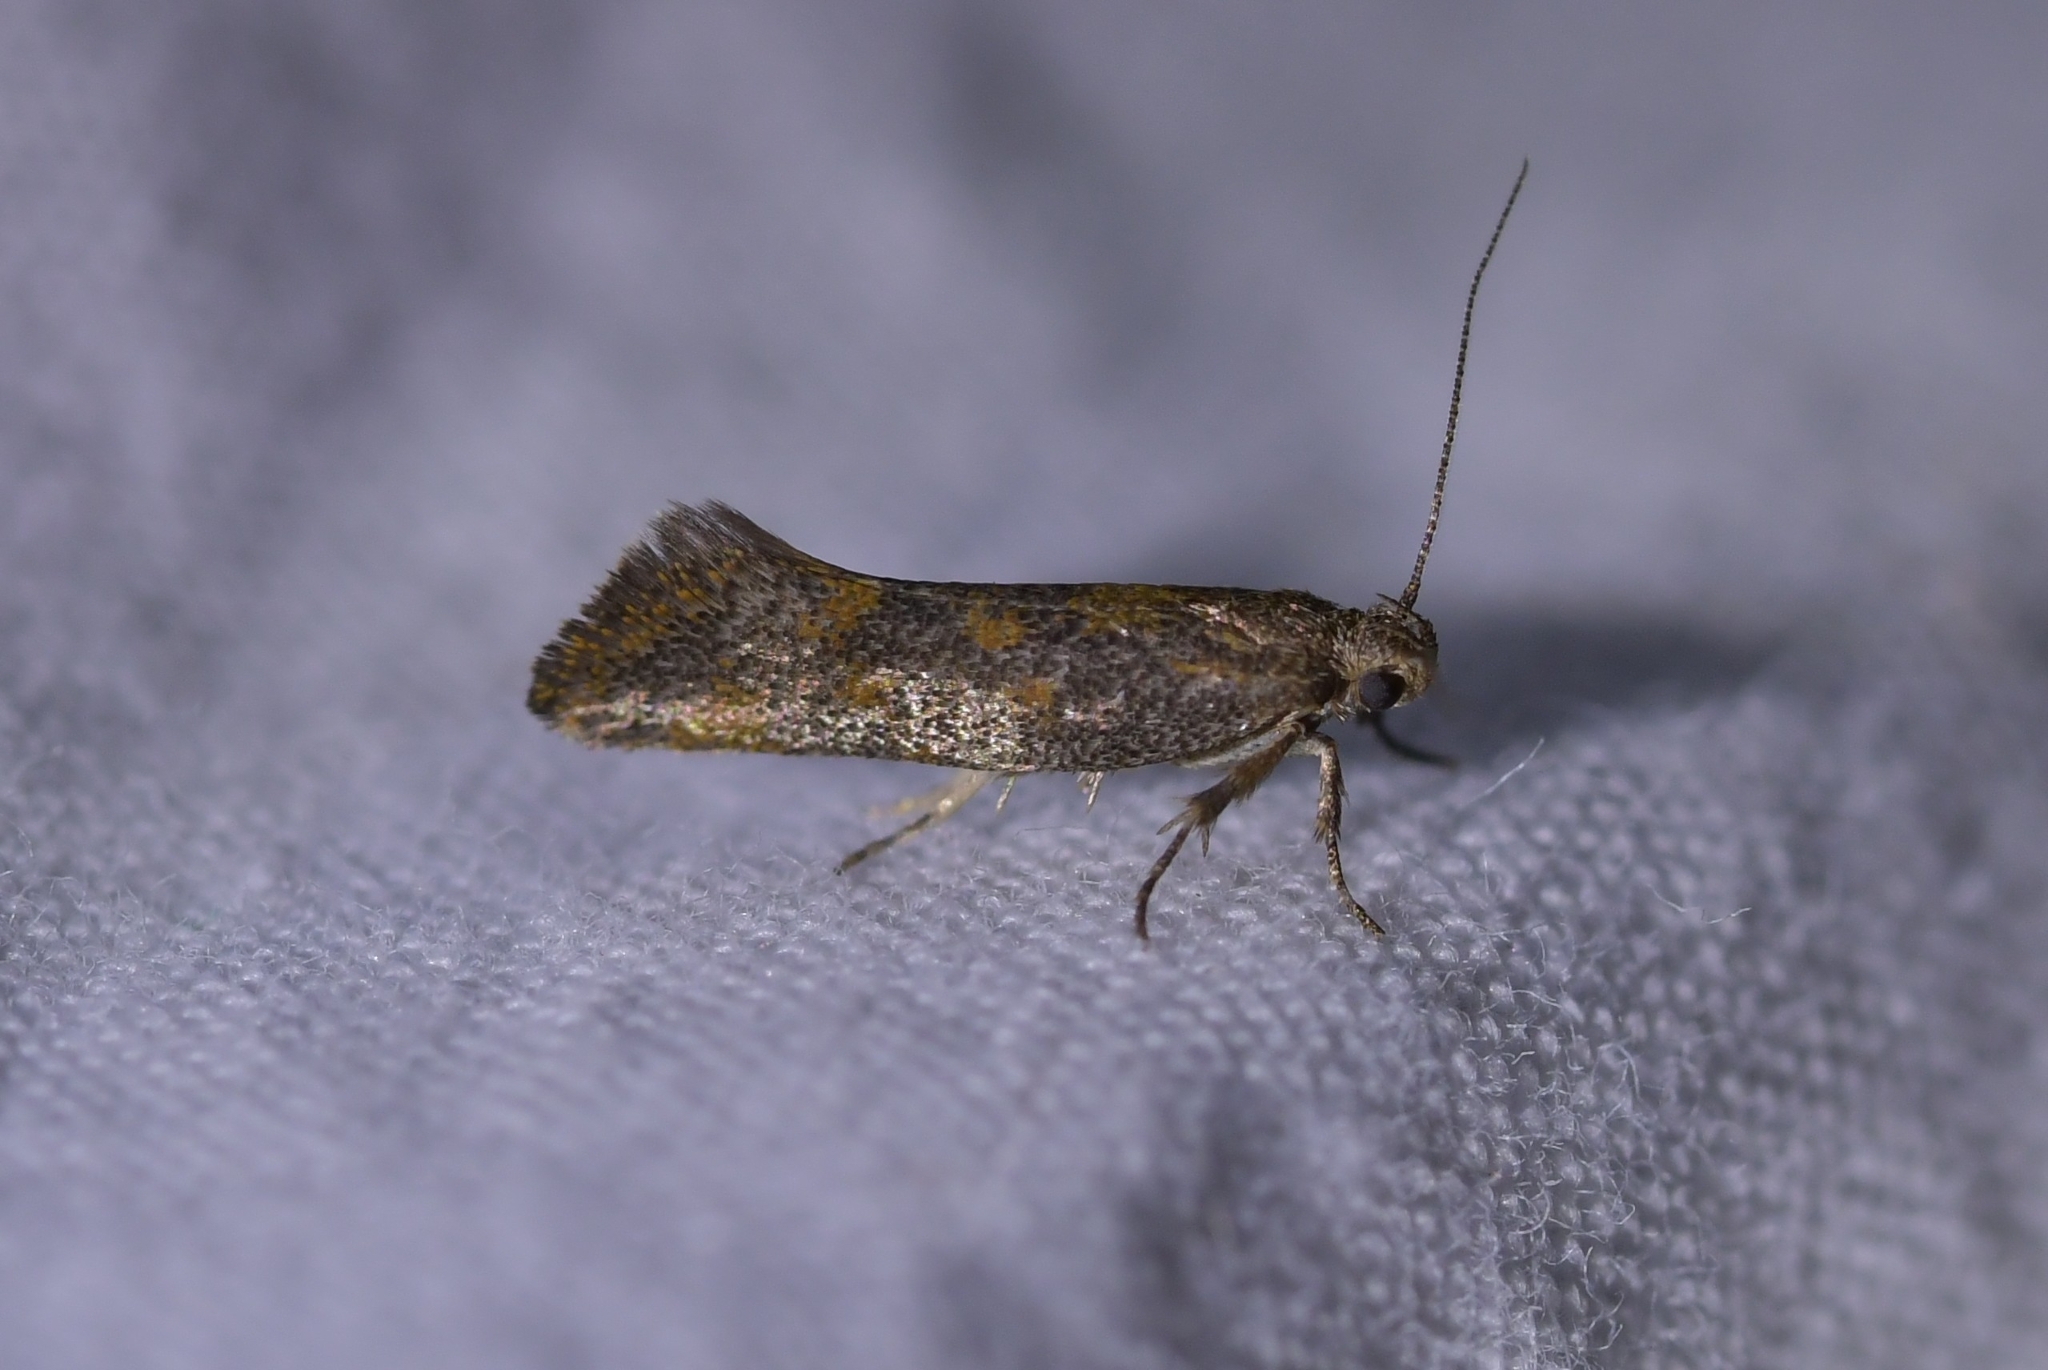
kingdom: Animalia
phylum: Arthropoda
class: Insecta
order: Lepidoptera
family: Oecophoridae
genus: Tingena
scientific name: Tingena siderodeta
